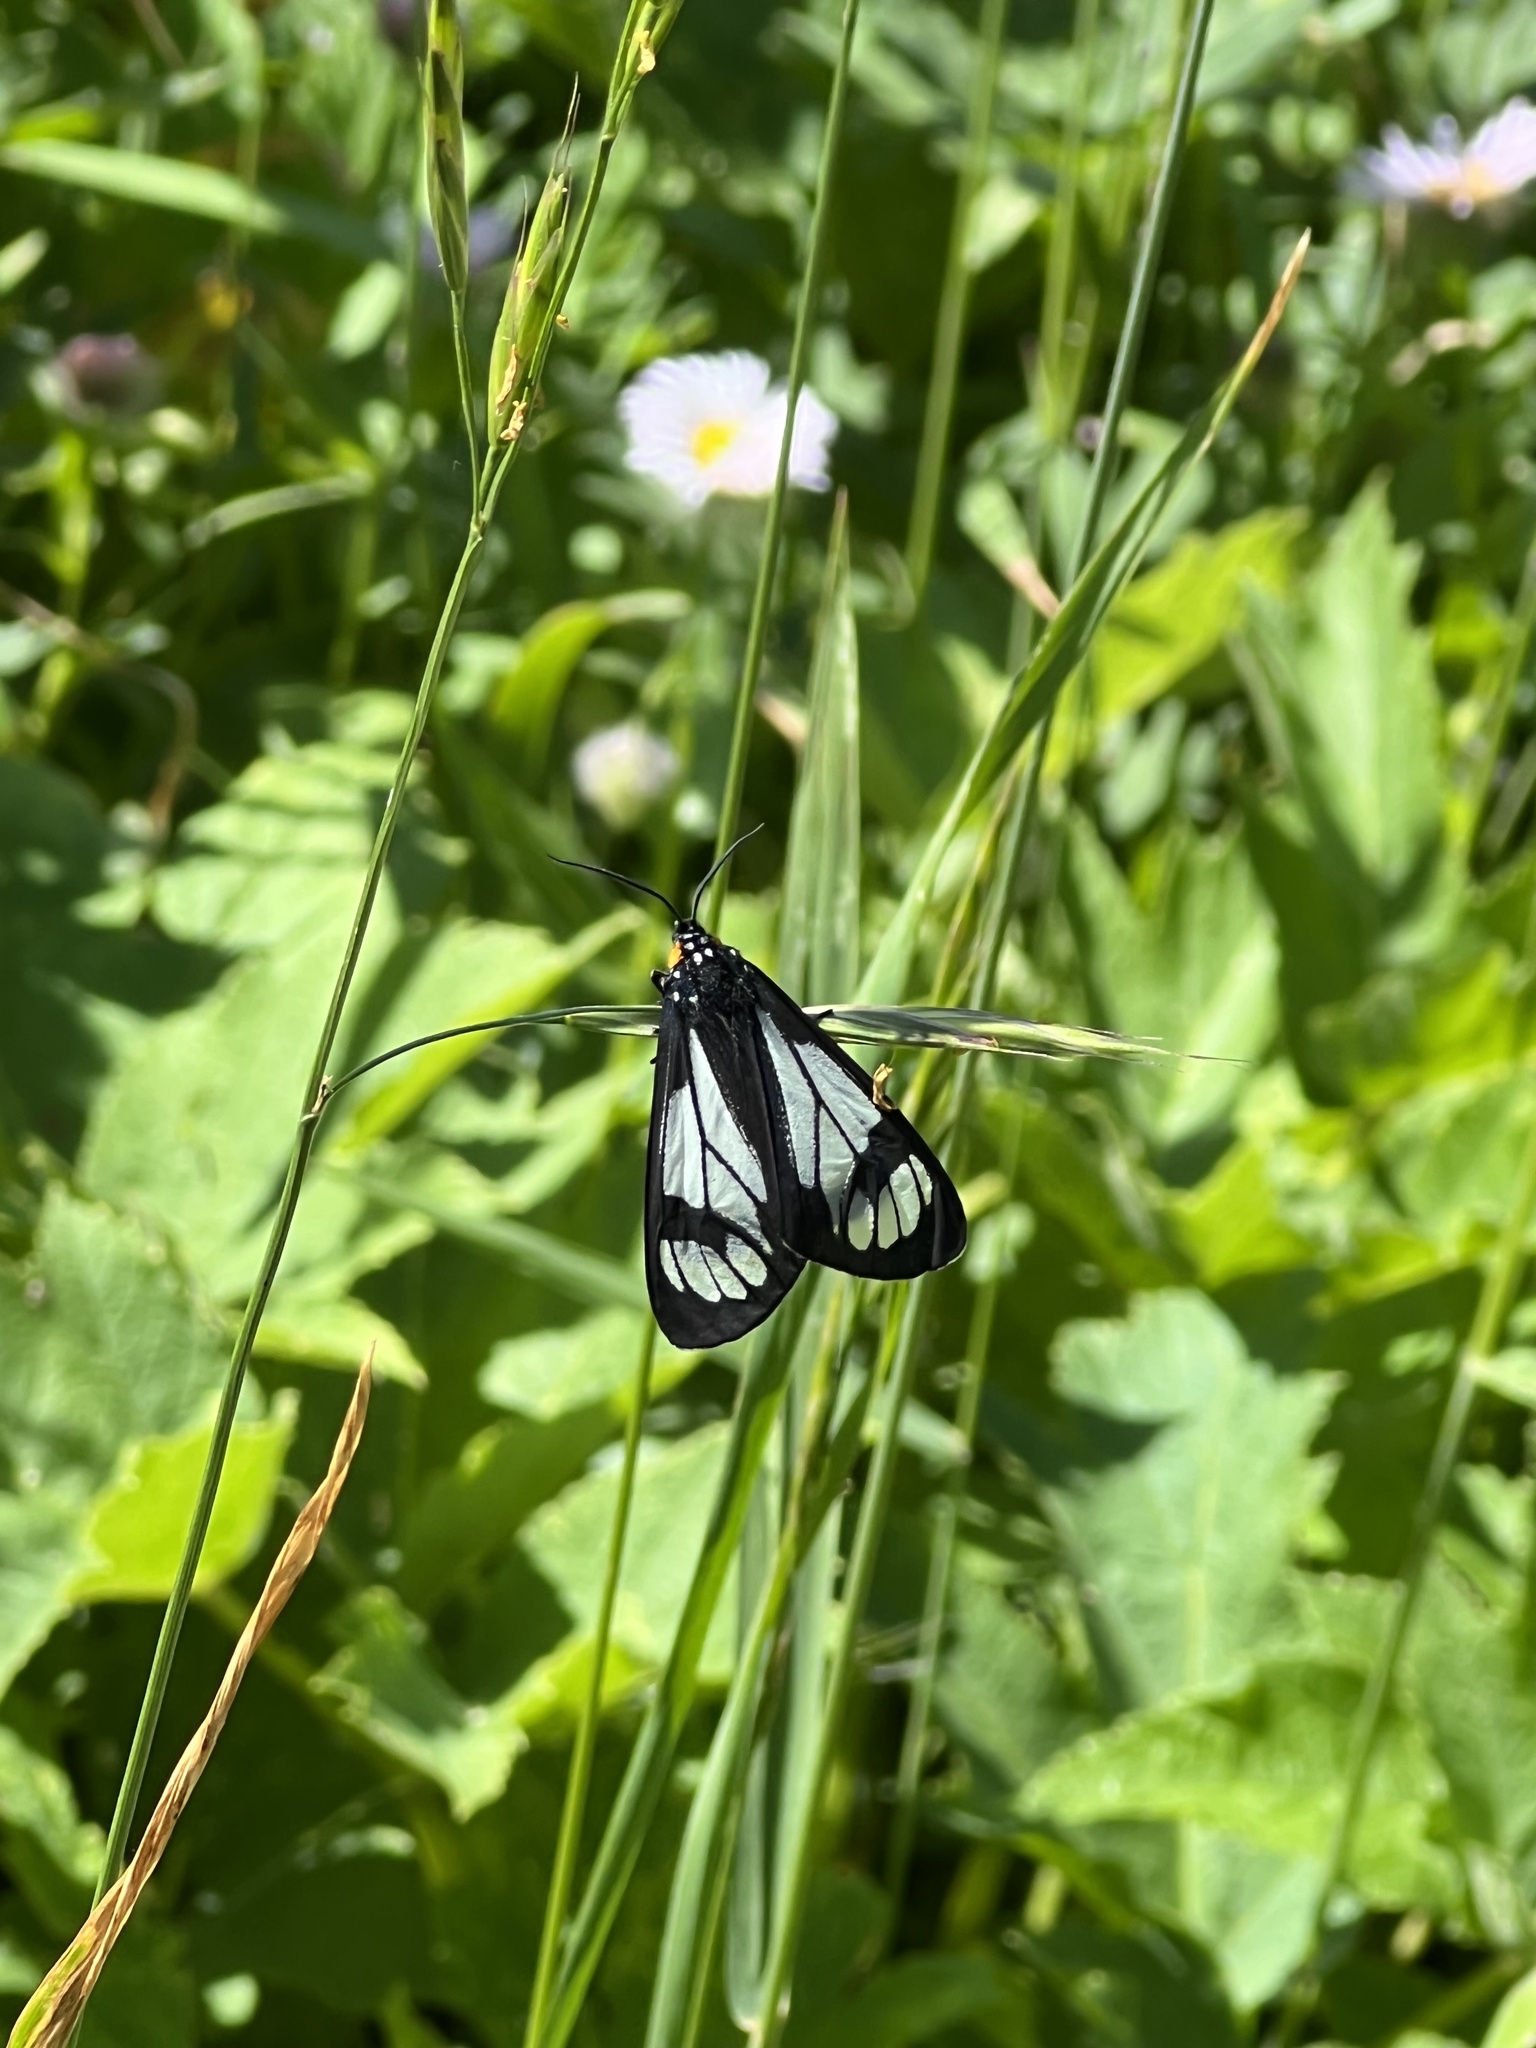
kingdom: Animalia
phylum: Arthropoda
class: Insecta
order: Lepidoptera
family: Erebidae
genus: Gnophaela
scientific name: Gnophaela vermiculata
